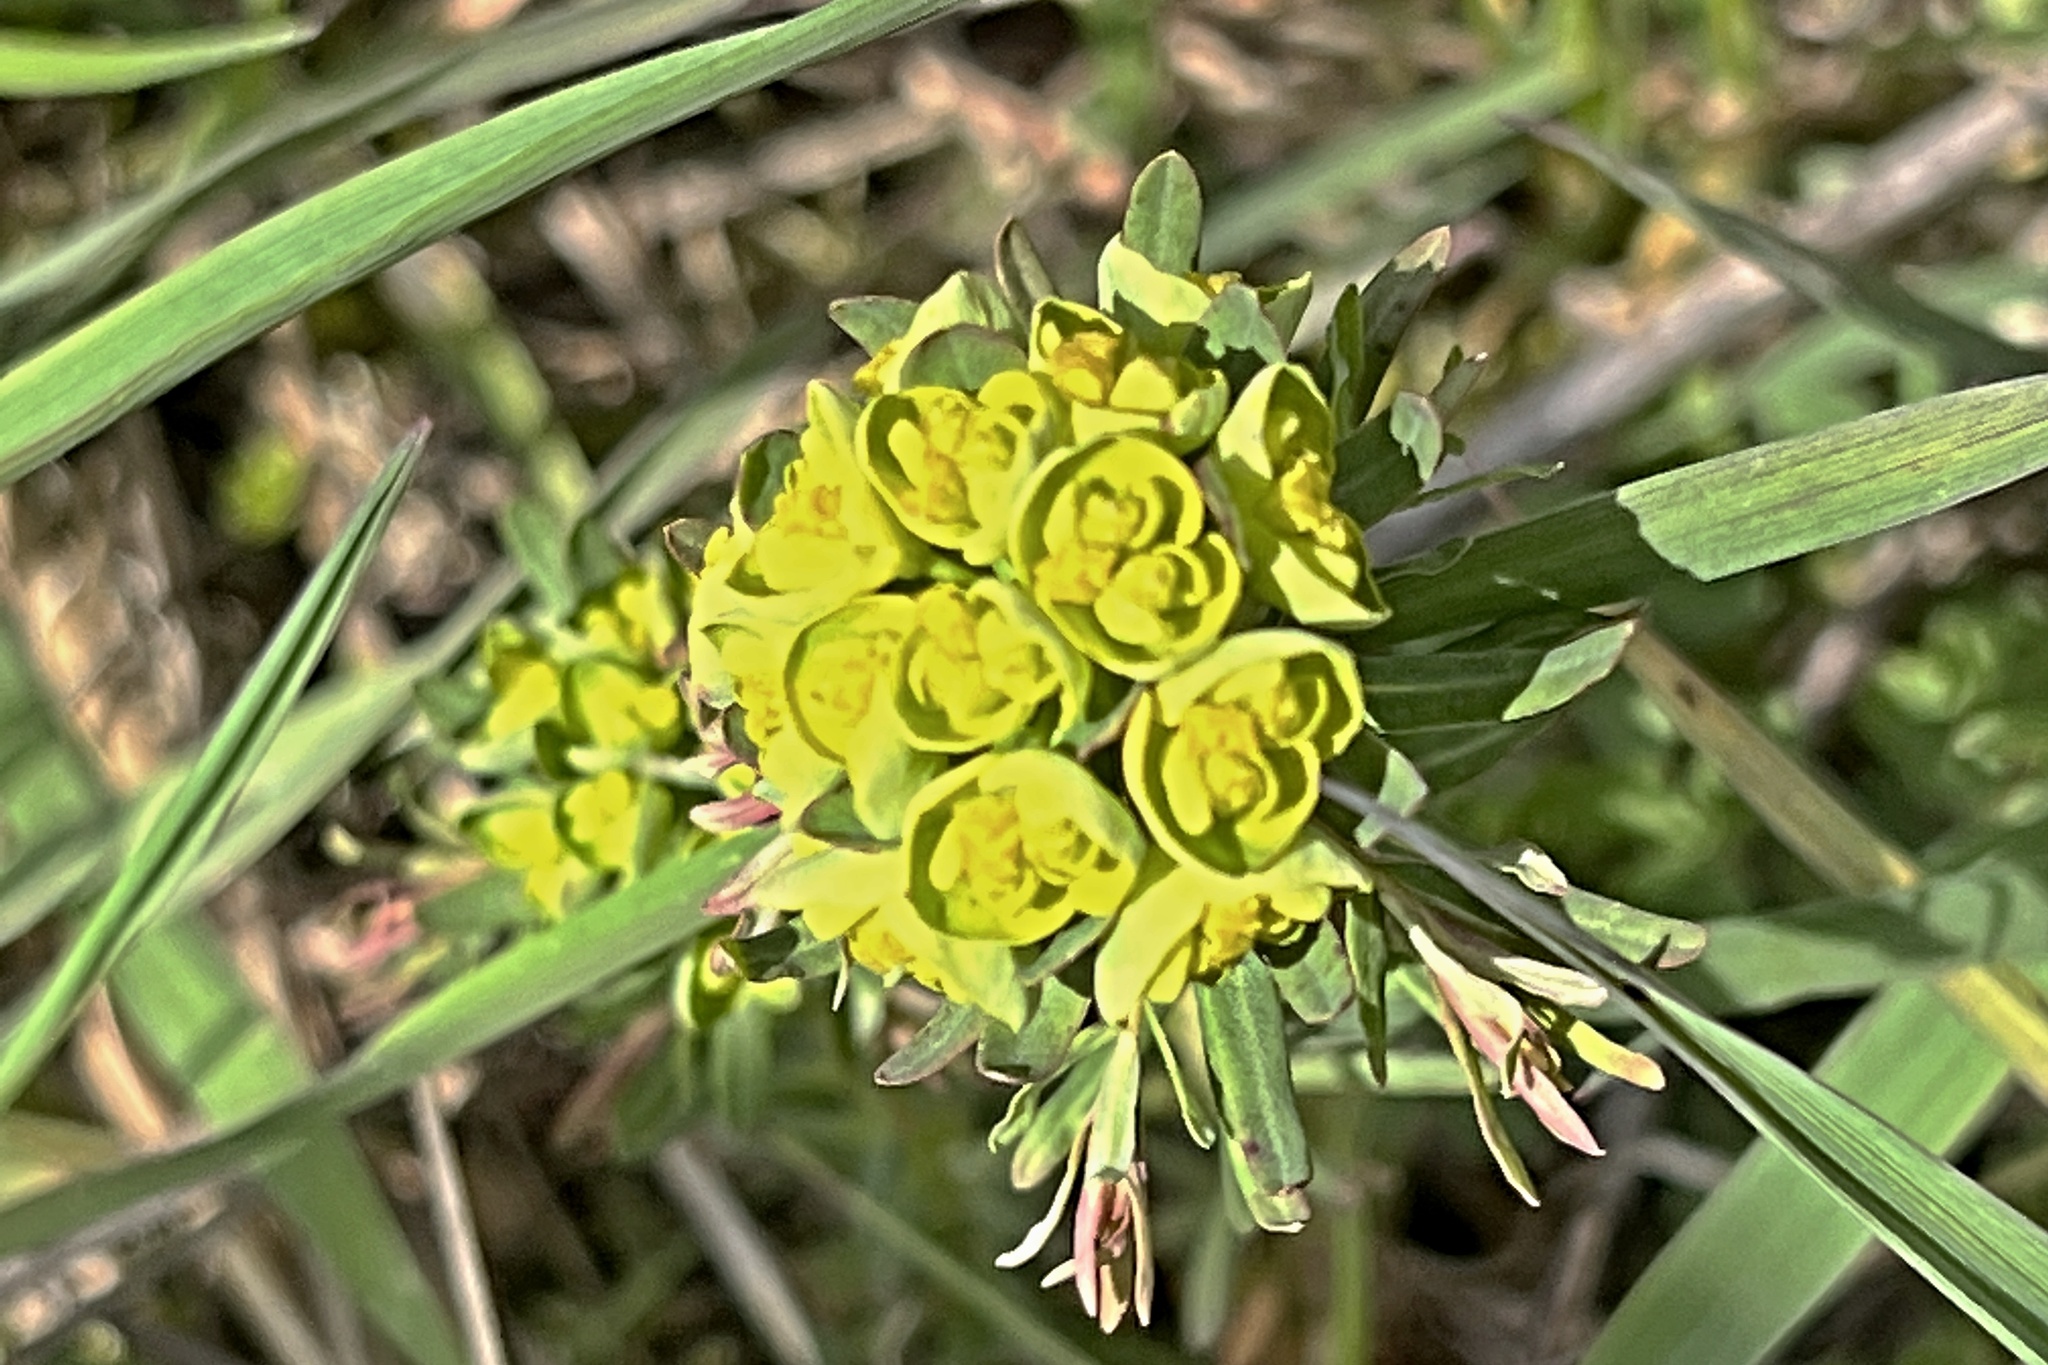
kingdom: Plantae
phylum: Tracheophyta
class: Magnoliopsida
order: Malpighiales
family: Euphorbiaceae
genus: Euphorbia
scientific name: Euphorbia cyparissias
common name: Cypress spurge
